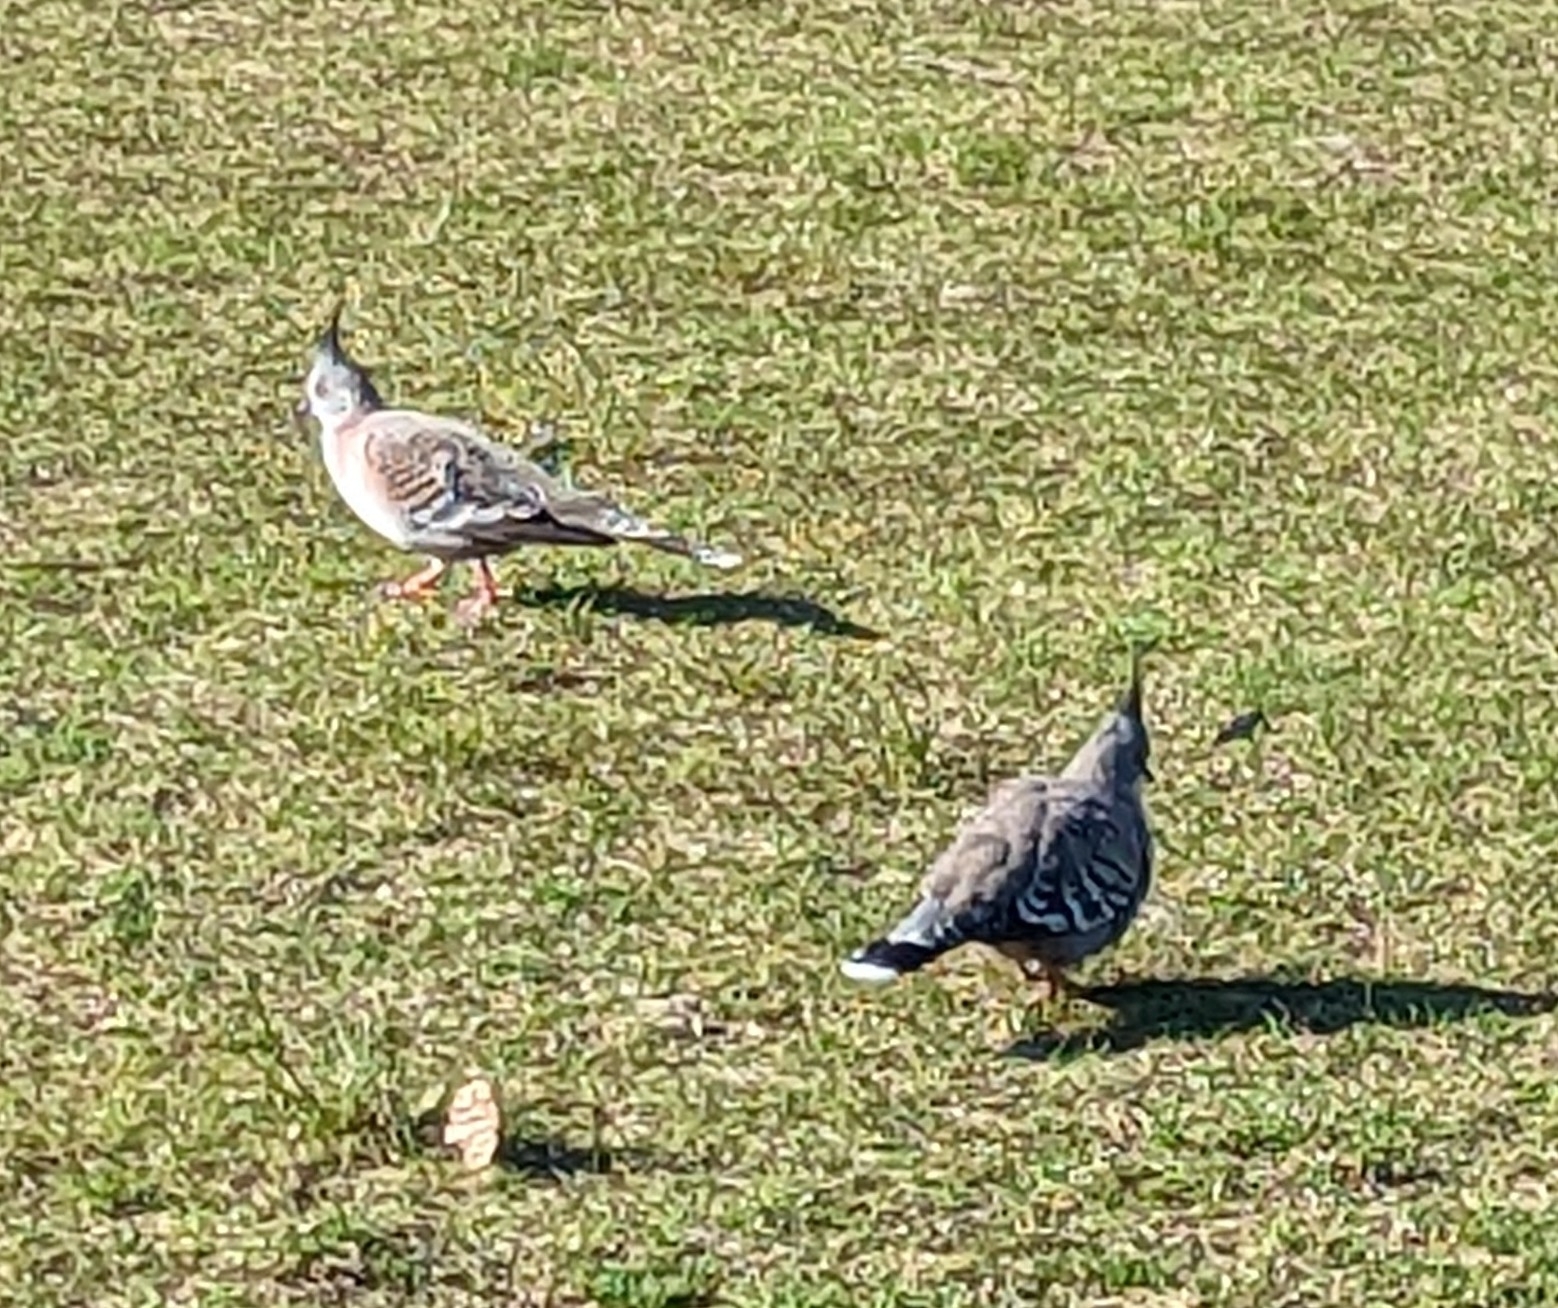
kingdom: Animalia
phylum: Chordata
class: Aves
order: Columbiformes
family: Columbidae
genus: Ocyphaps
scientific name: Ocyphaps lophotes
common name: Crested pigeon
